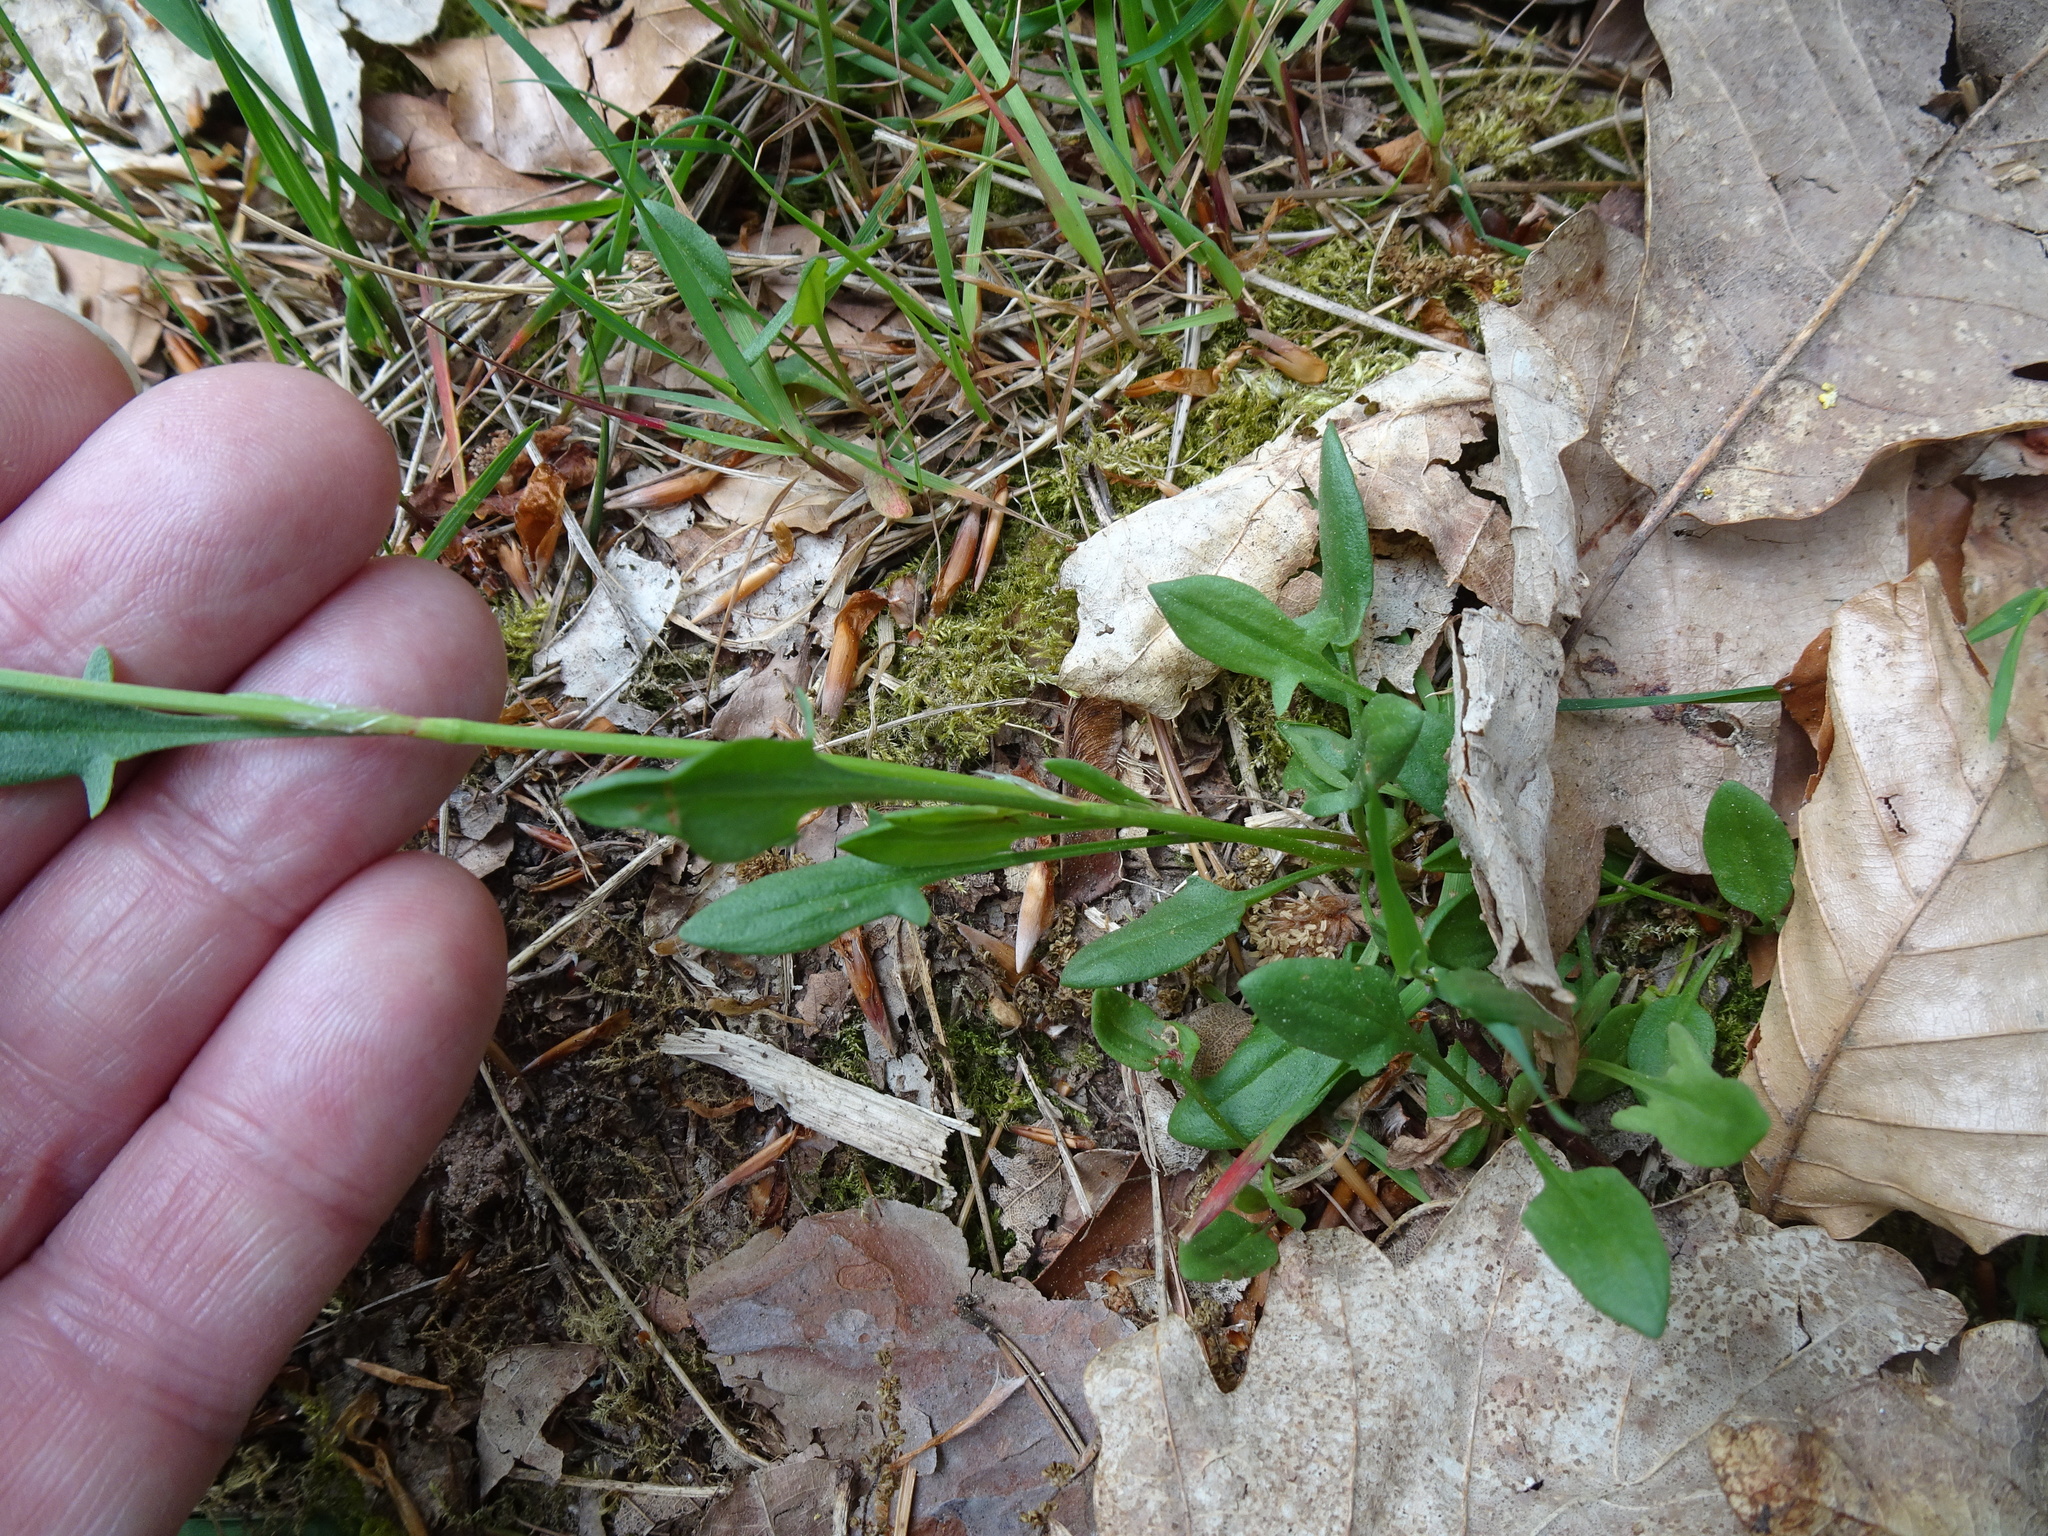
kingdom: Plantae
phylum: Tracheophyta
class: Magnoliopsida
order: Caryophyllales
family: Polygonaceae
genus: Rumex
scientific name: Rumex acetosella
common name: Common sheep sorrel
